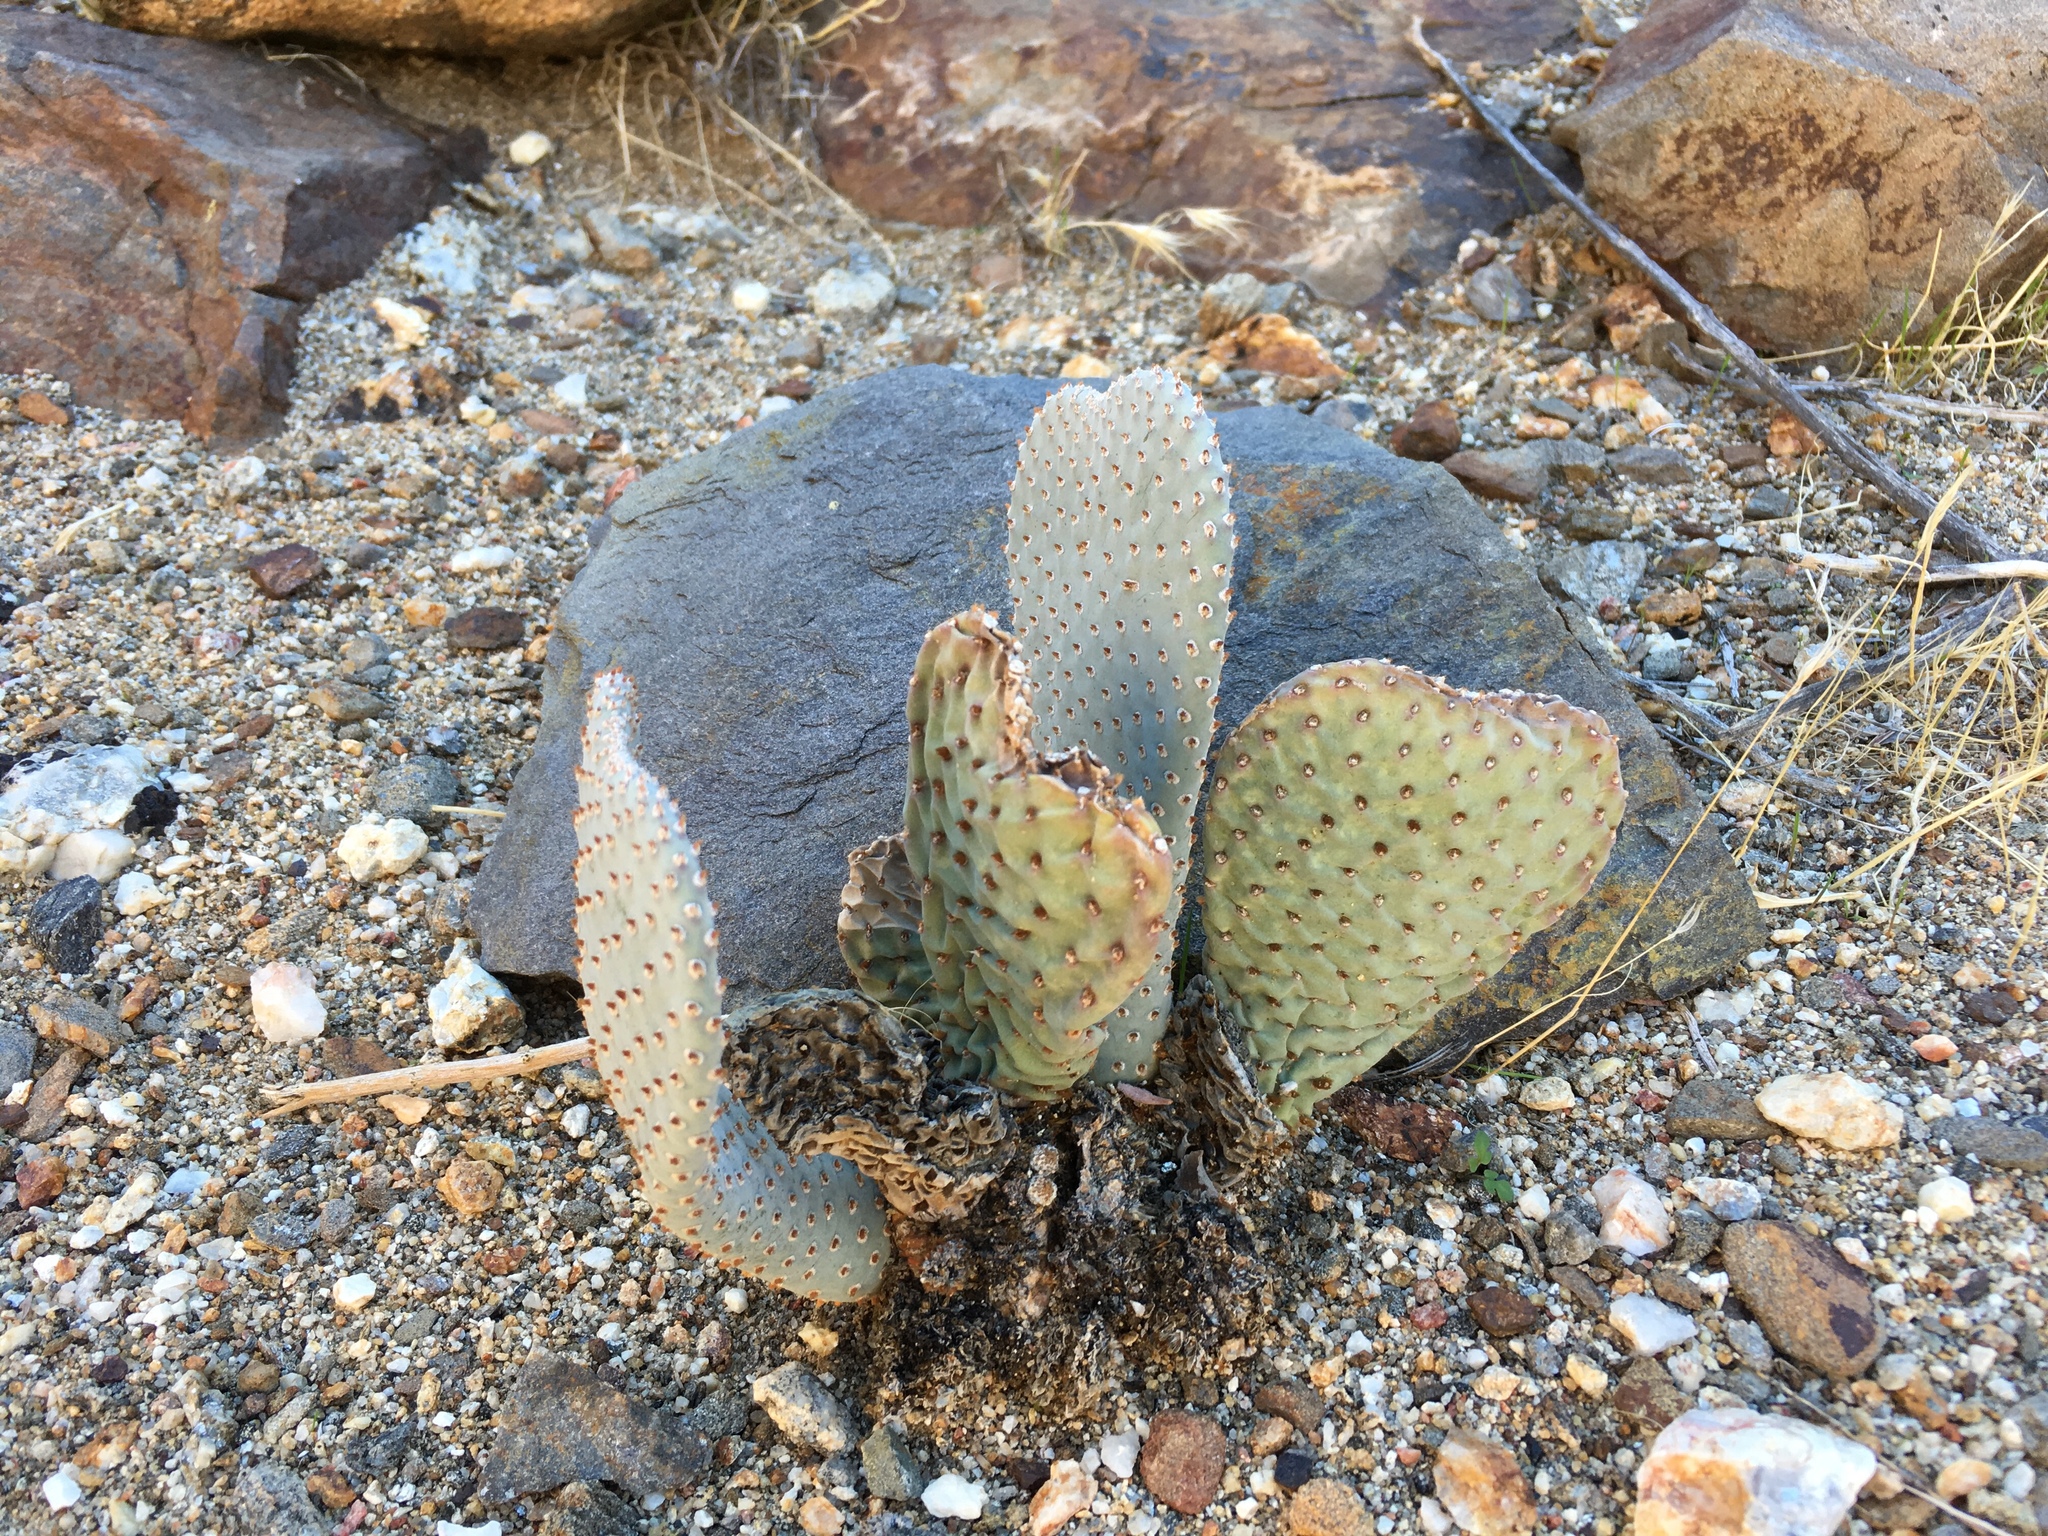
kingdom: Plantae
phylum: Tracheophyta
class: Magnoliopsida
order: Caryophyllales
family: Cactaceae
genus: Opuntia
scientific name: Opuntia basilaris
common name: Beavertail prickly-pear
